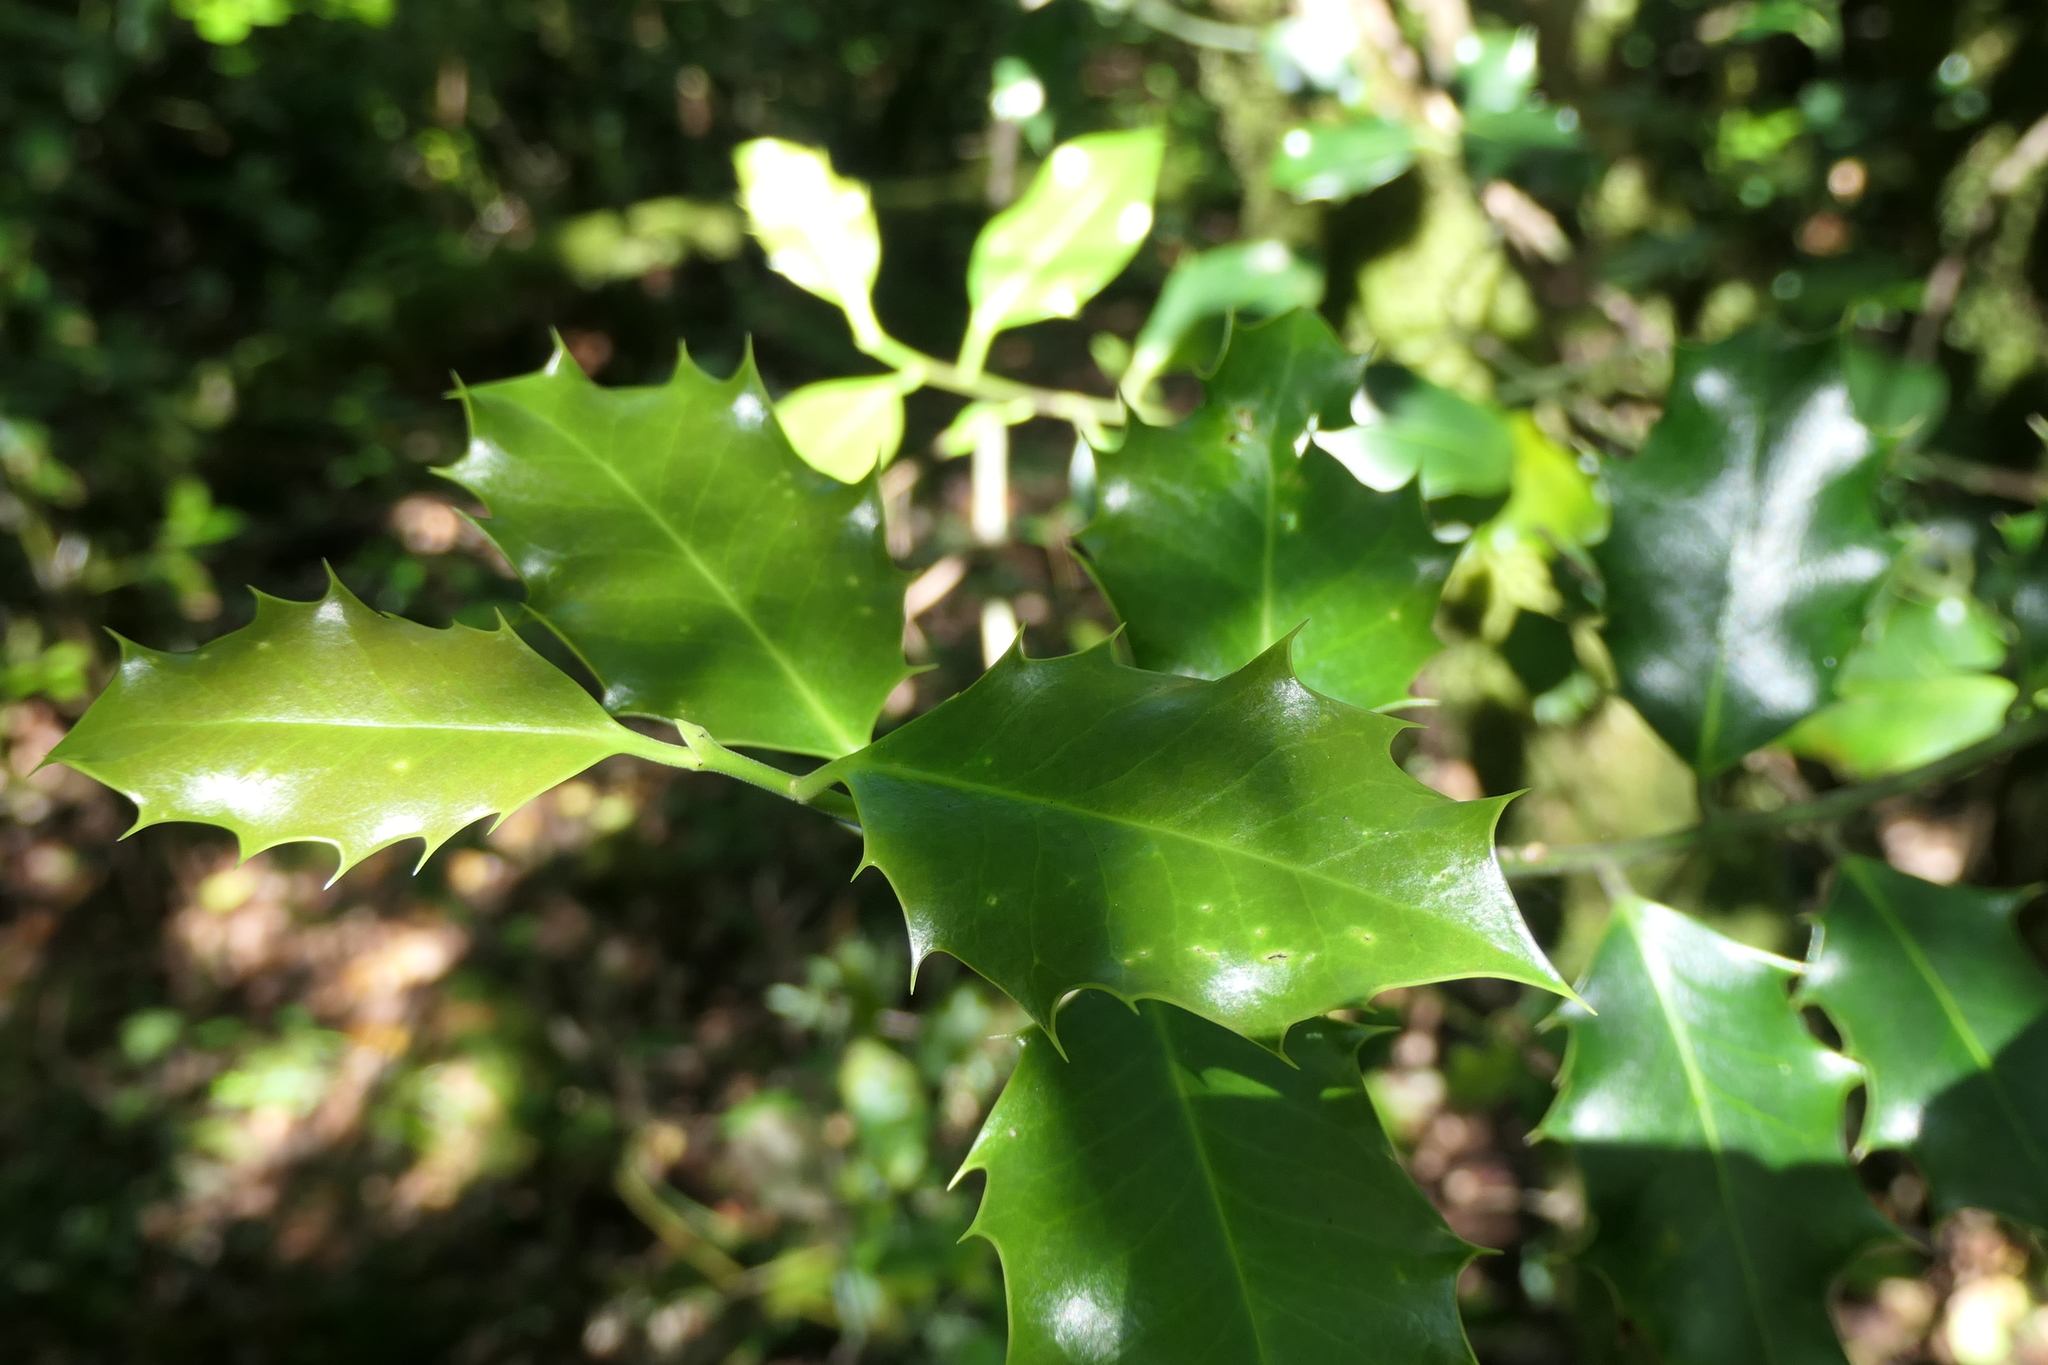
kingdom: Plantae
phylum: Tracheophyta
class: Magnoliopsida
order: Aquifoliales
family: Aquifoliaceae
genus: Ilex
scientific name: Ilex aquifolium
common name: English holly
